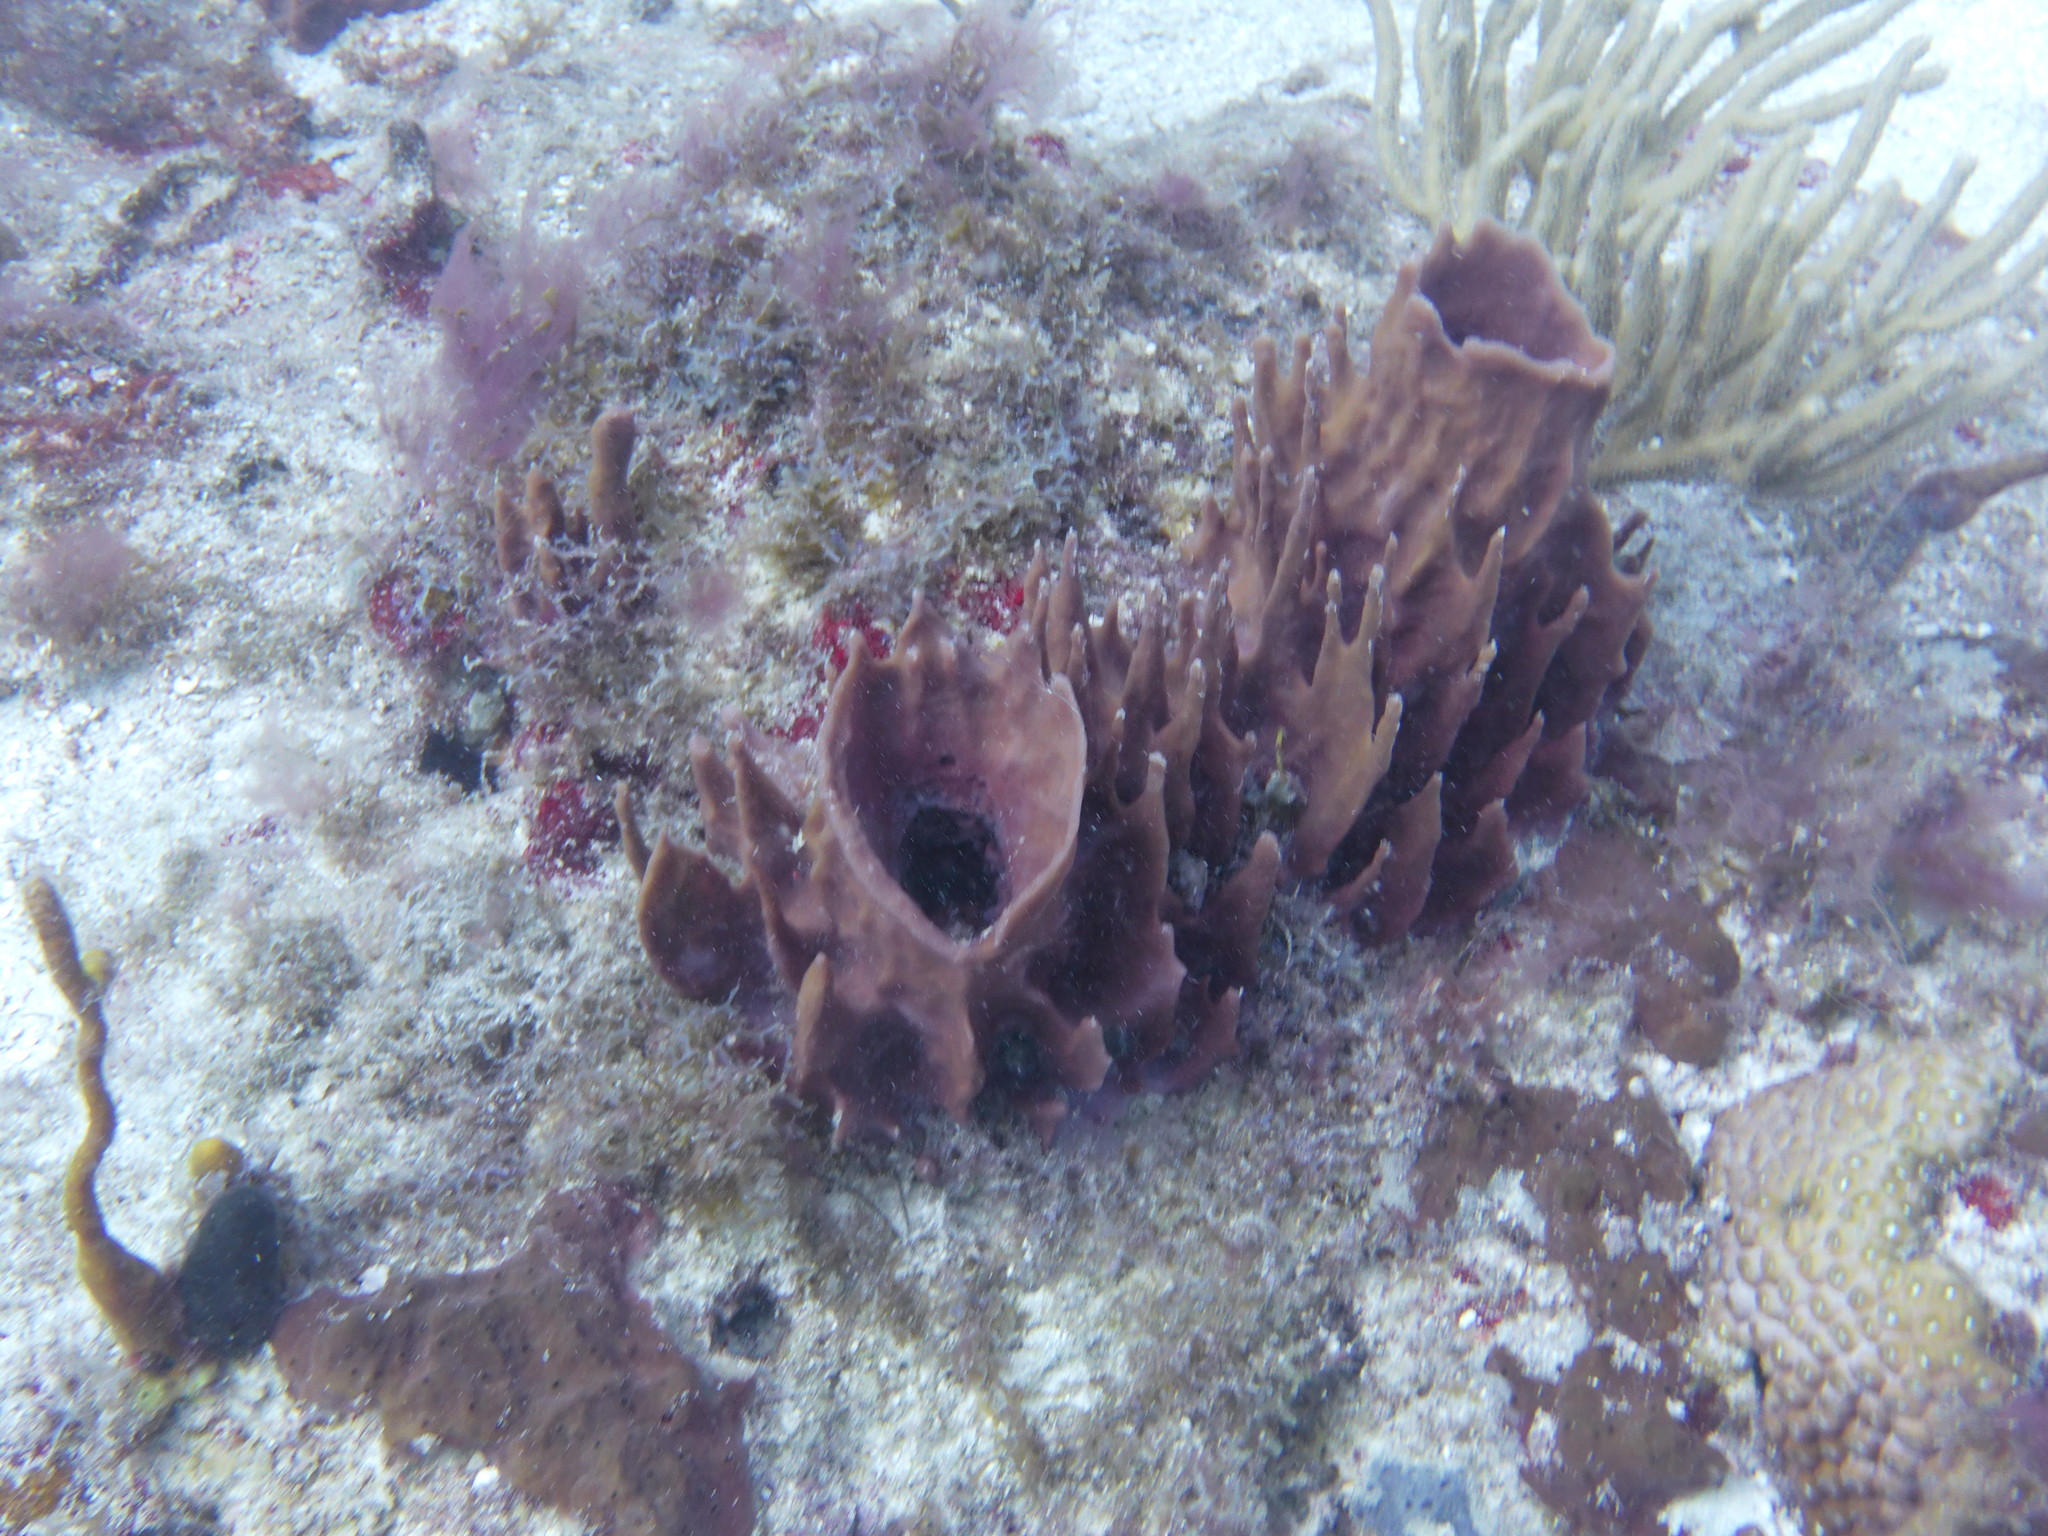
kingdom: Animalia
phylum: Porifera
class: Demospongiae
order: Haplosclerida
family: Petrosiidae
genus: Xestospongia
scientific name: Xestospongia muta
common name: Giant barrel sponge
